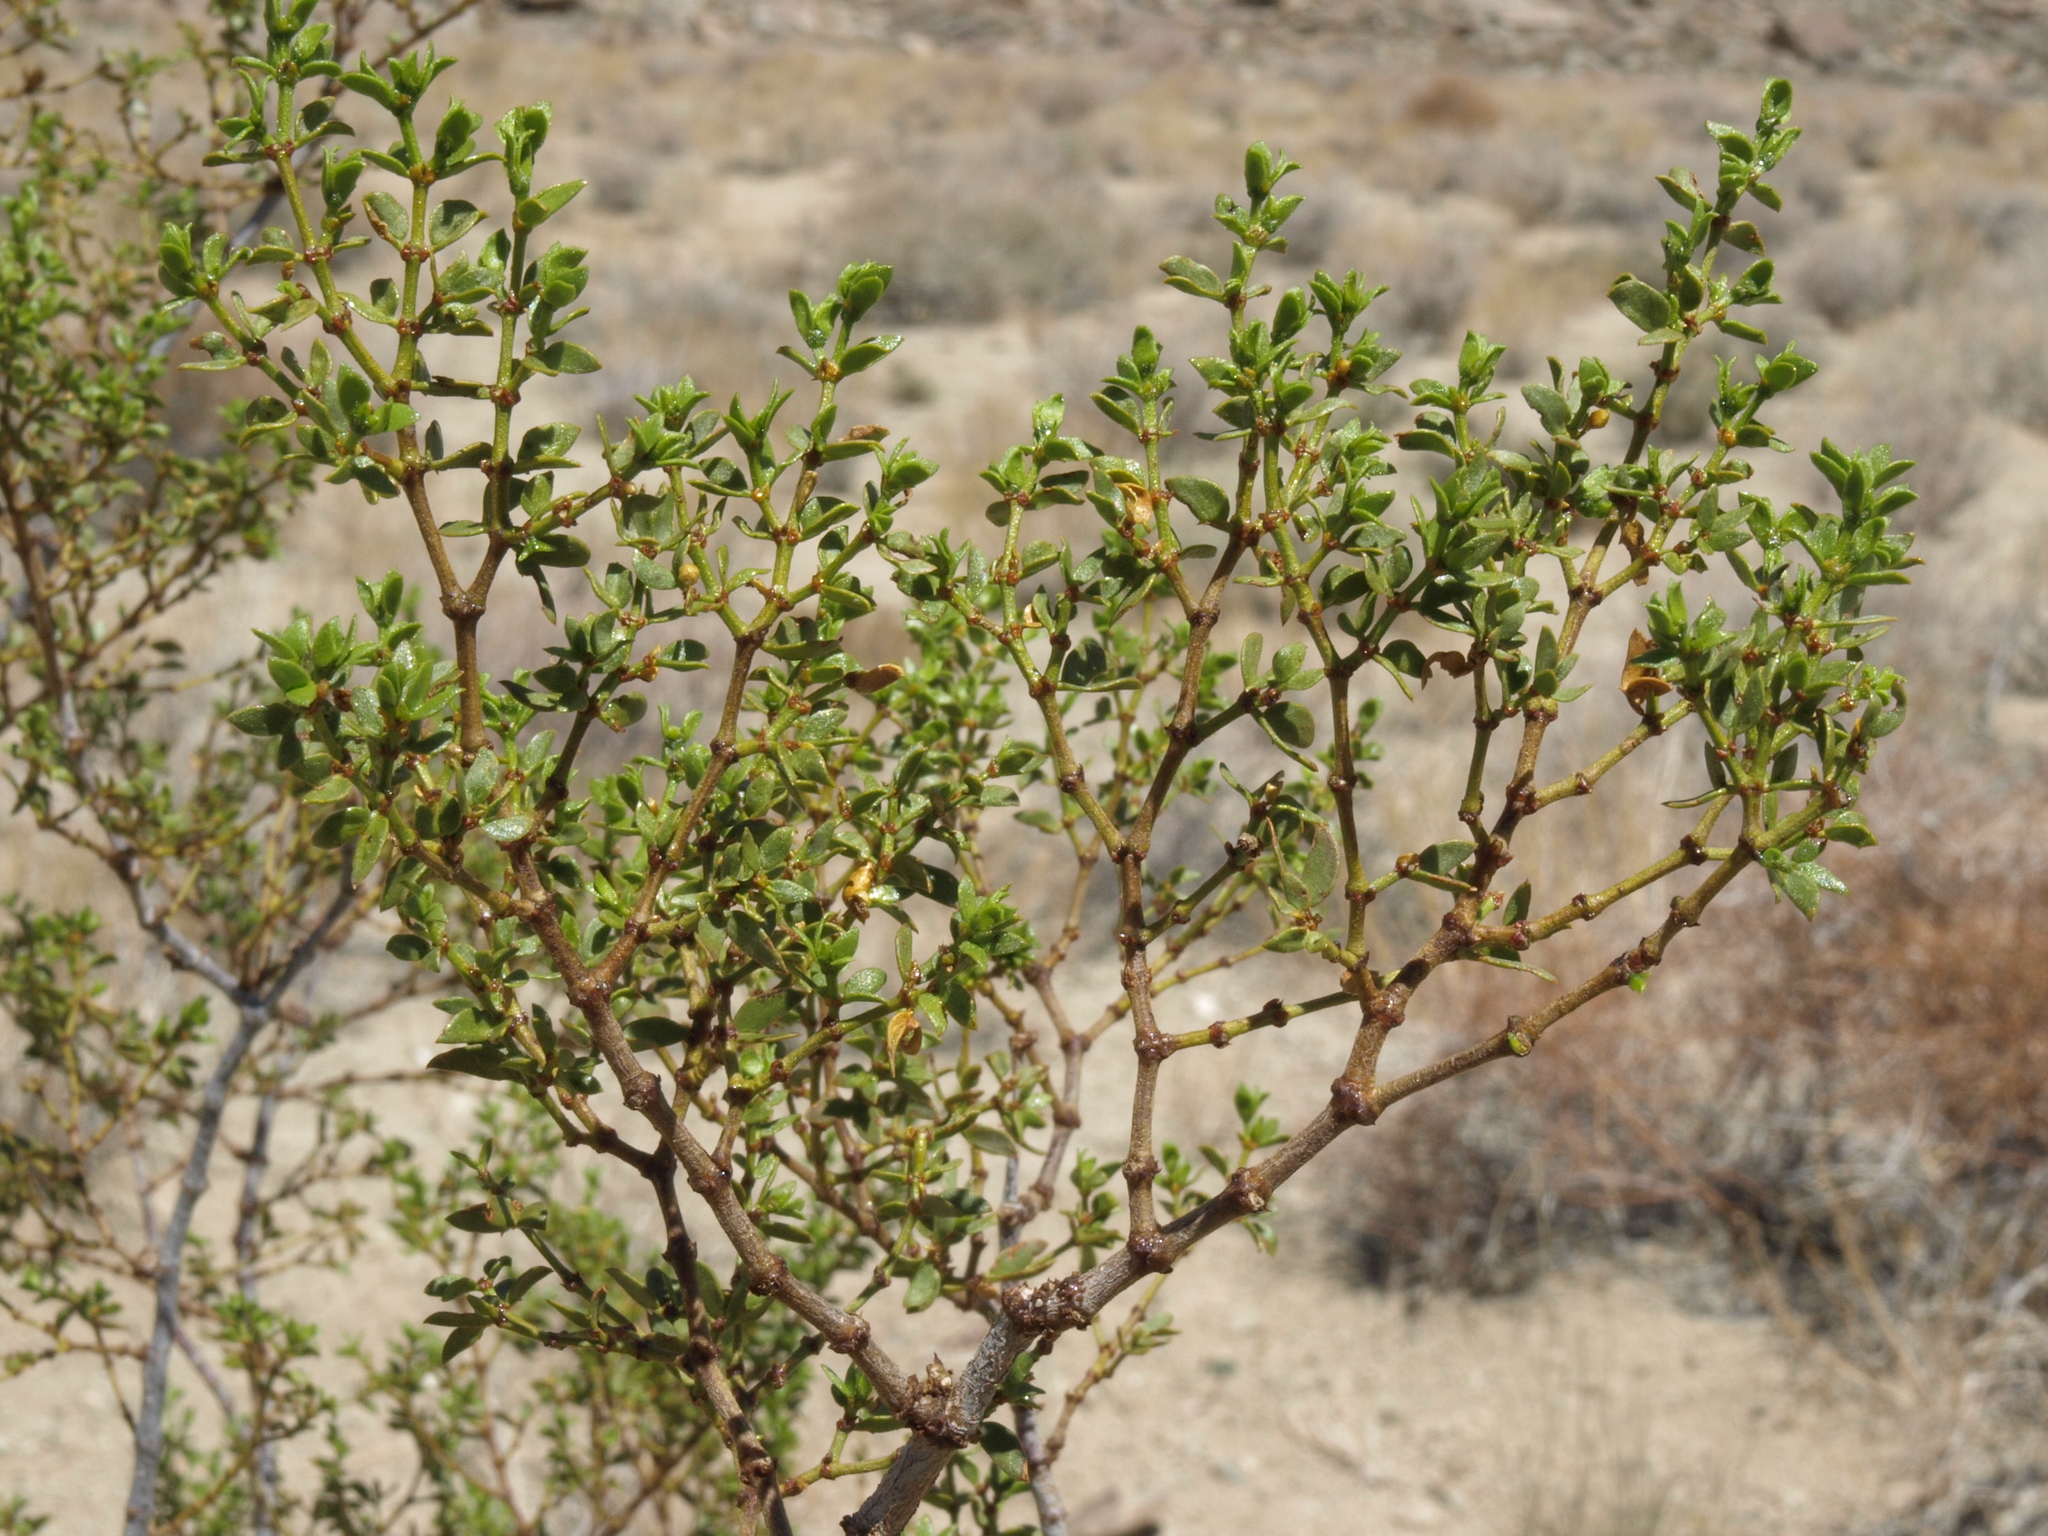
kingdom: Plantae
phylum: Tracheophyta
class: Magnoliopsida
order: Zygophyllales
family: Zygophyllaceae
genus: Larrea
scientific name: Larrea tridentata
